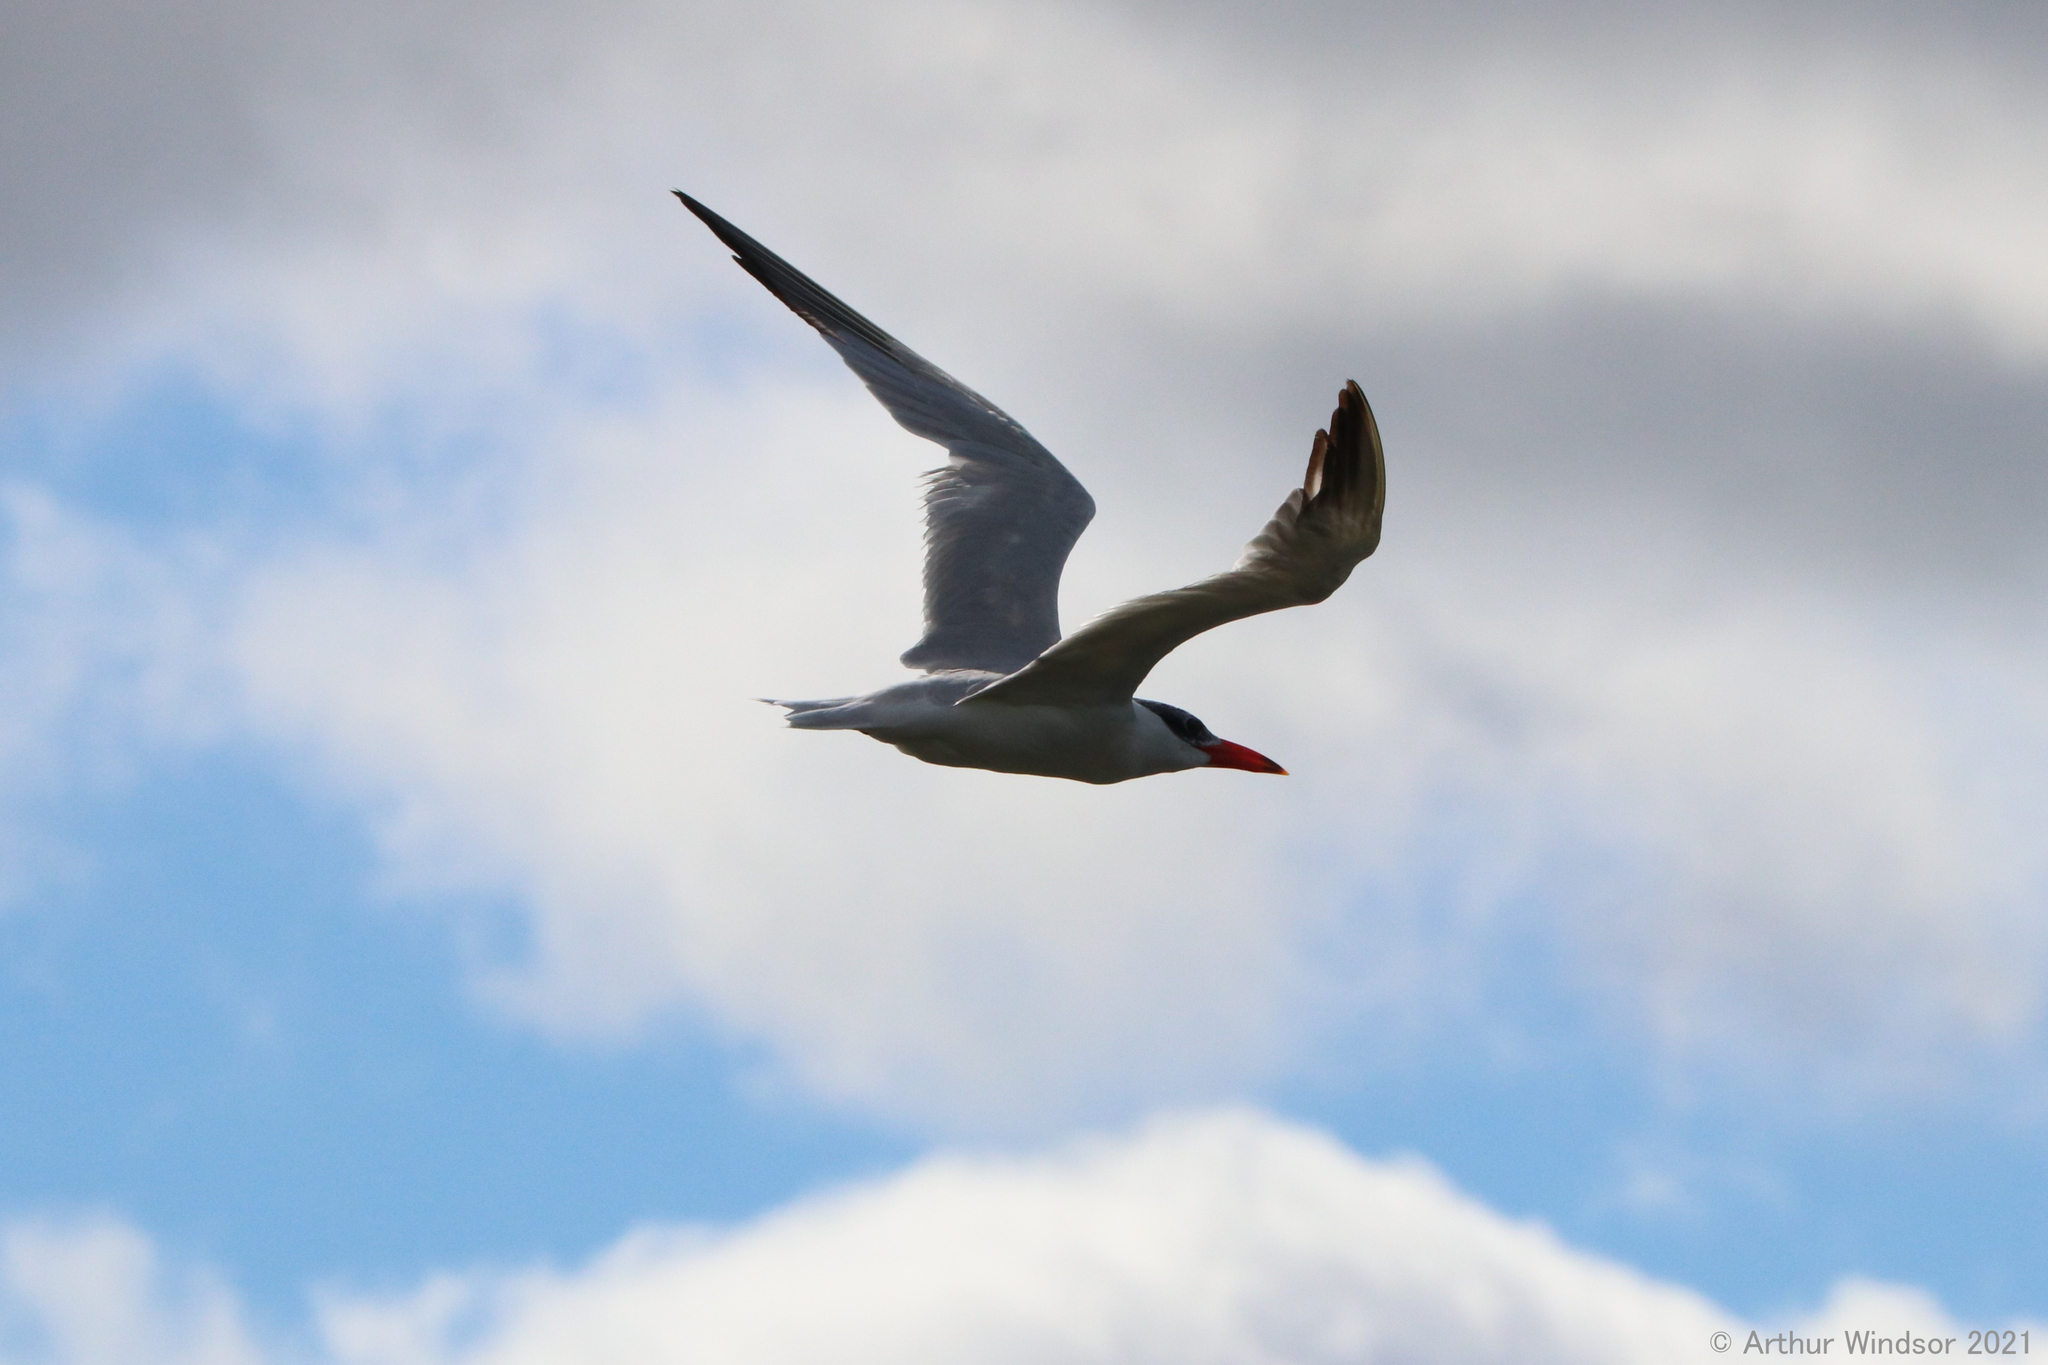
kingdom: Animalia
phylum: Chordata
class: Aves
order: Charadriiformes
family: Laridae
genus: Hydroprogne
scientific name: Hydroprogne caspia
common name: Caspian tern
